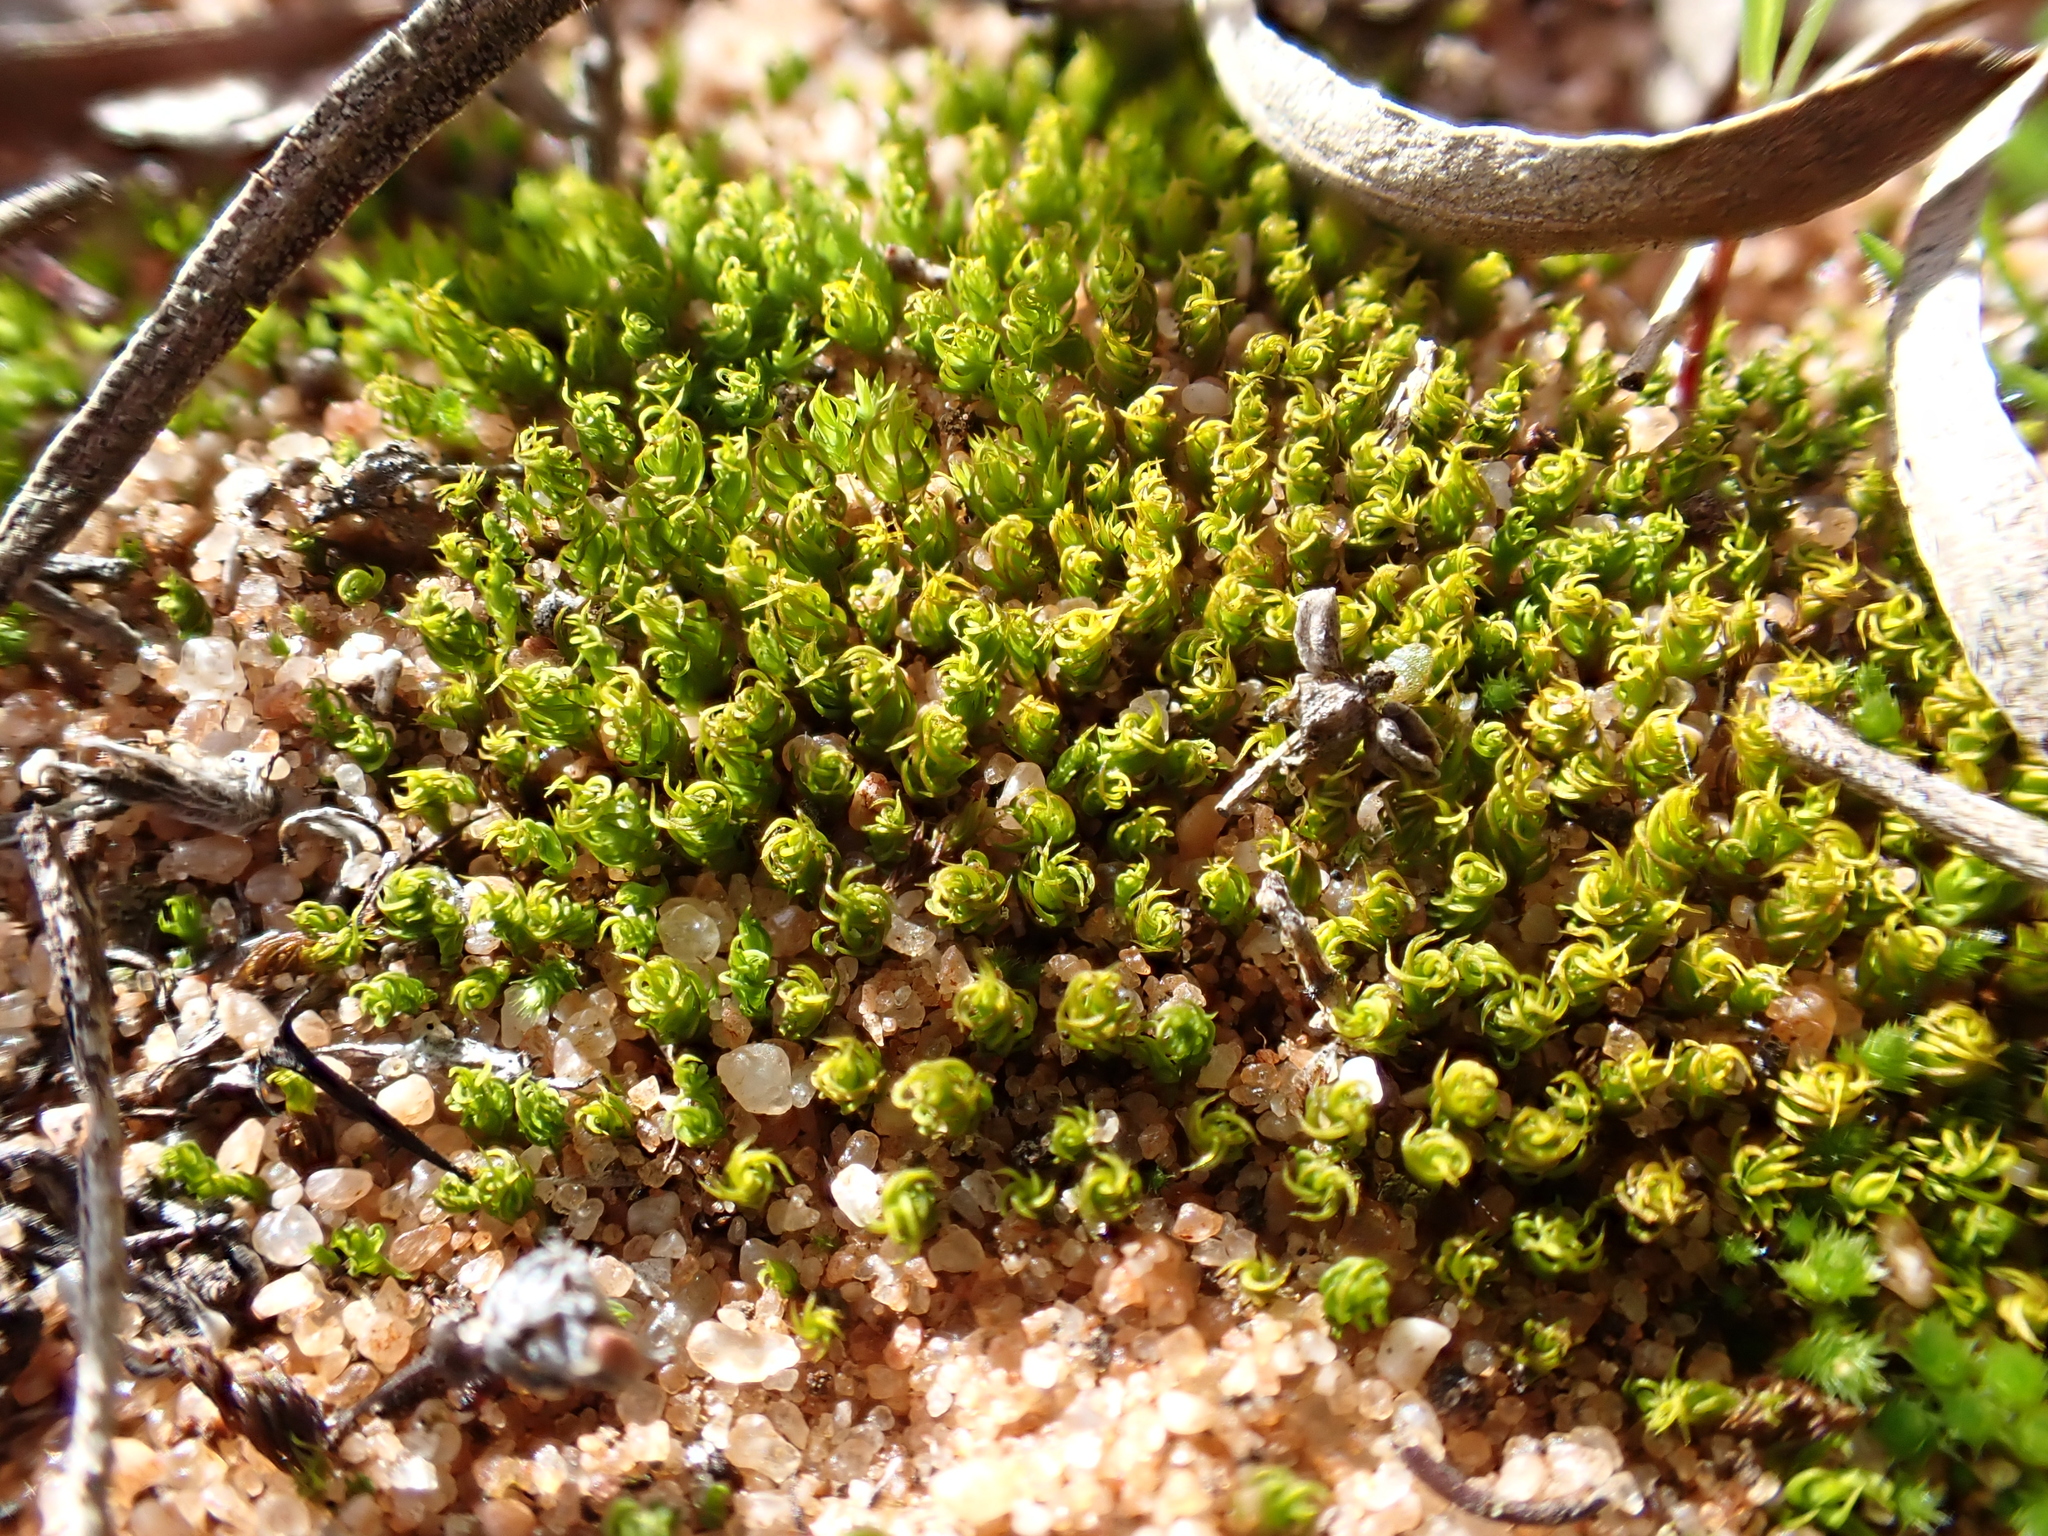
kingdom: Plantae
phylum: Bryophyta
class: Bryopsida
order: Pottiales
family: Pottiaceae
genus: Barbula
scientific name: Barbula calycina
